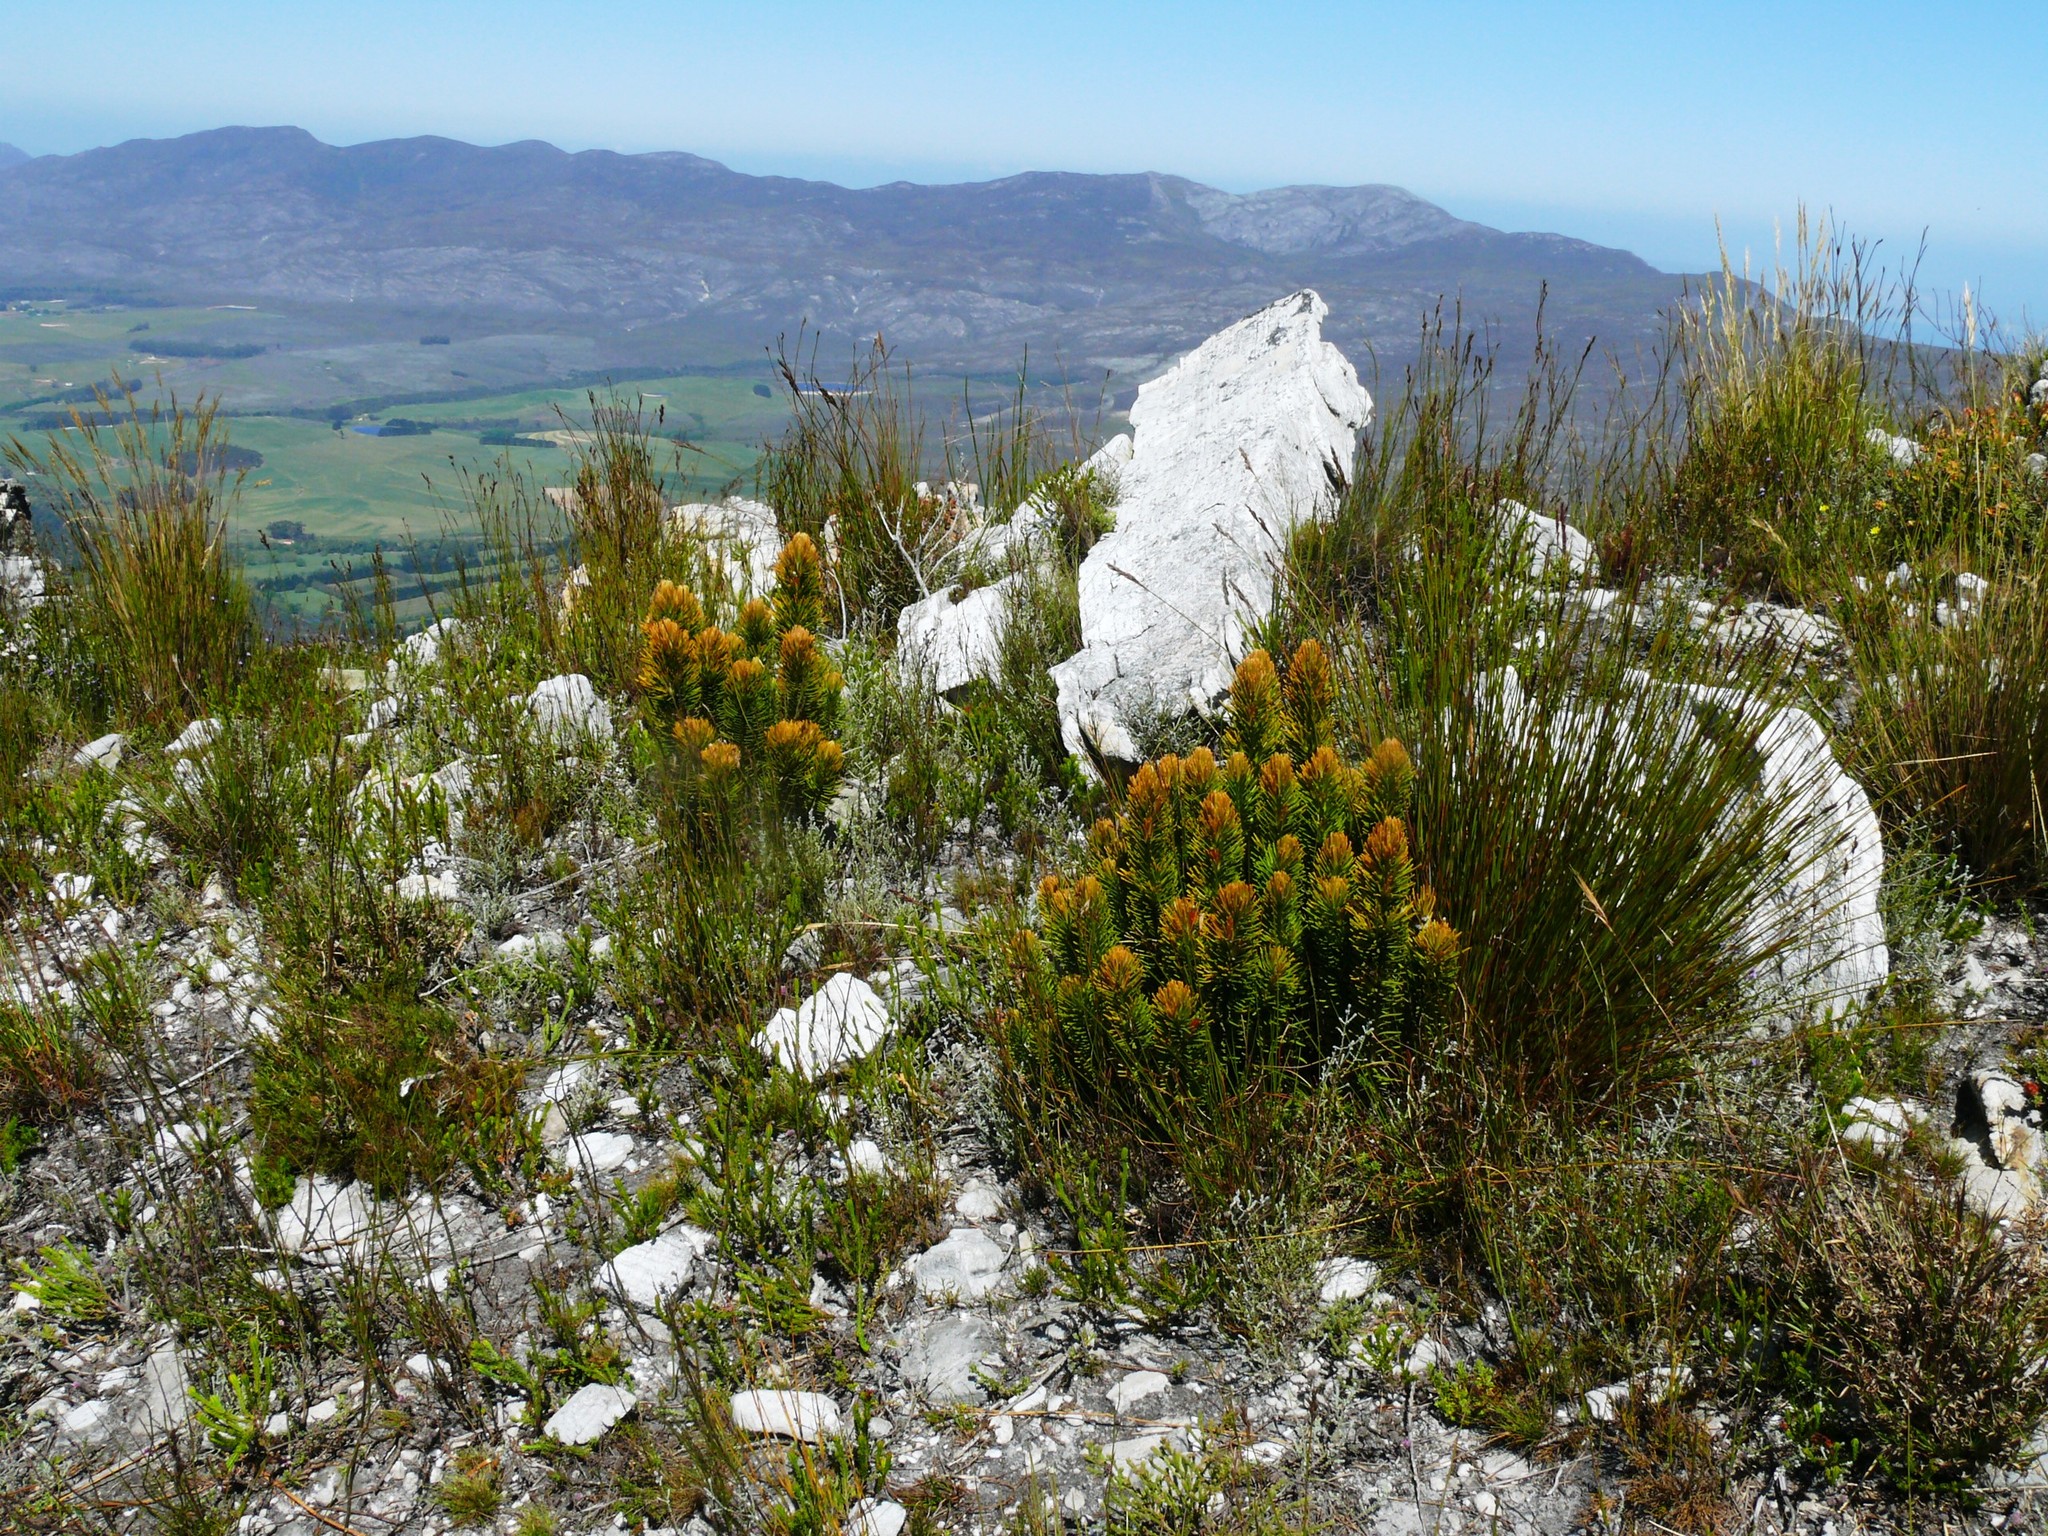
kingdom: Plantae
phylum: Tracheophyta
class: Magnoliopsida
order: Lamiales
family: Stilbaceae
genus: Retzia
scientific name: Retzia capensis
